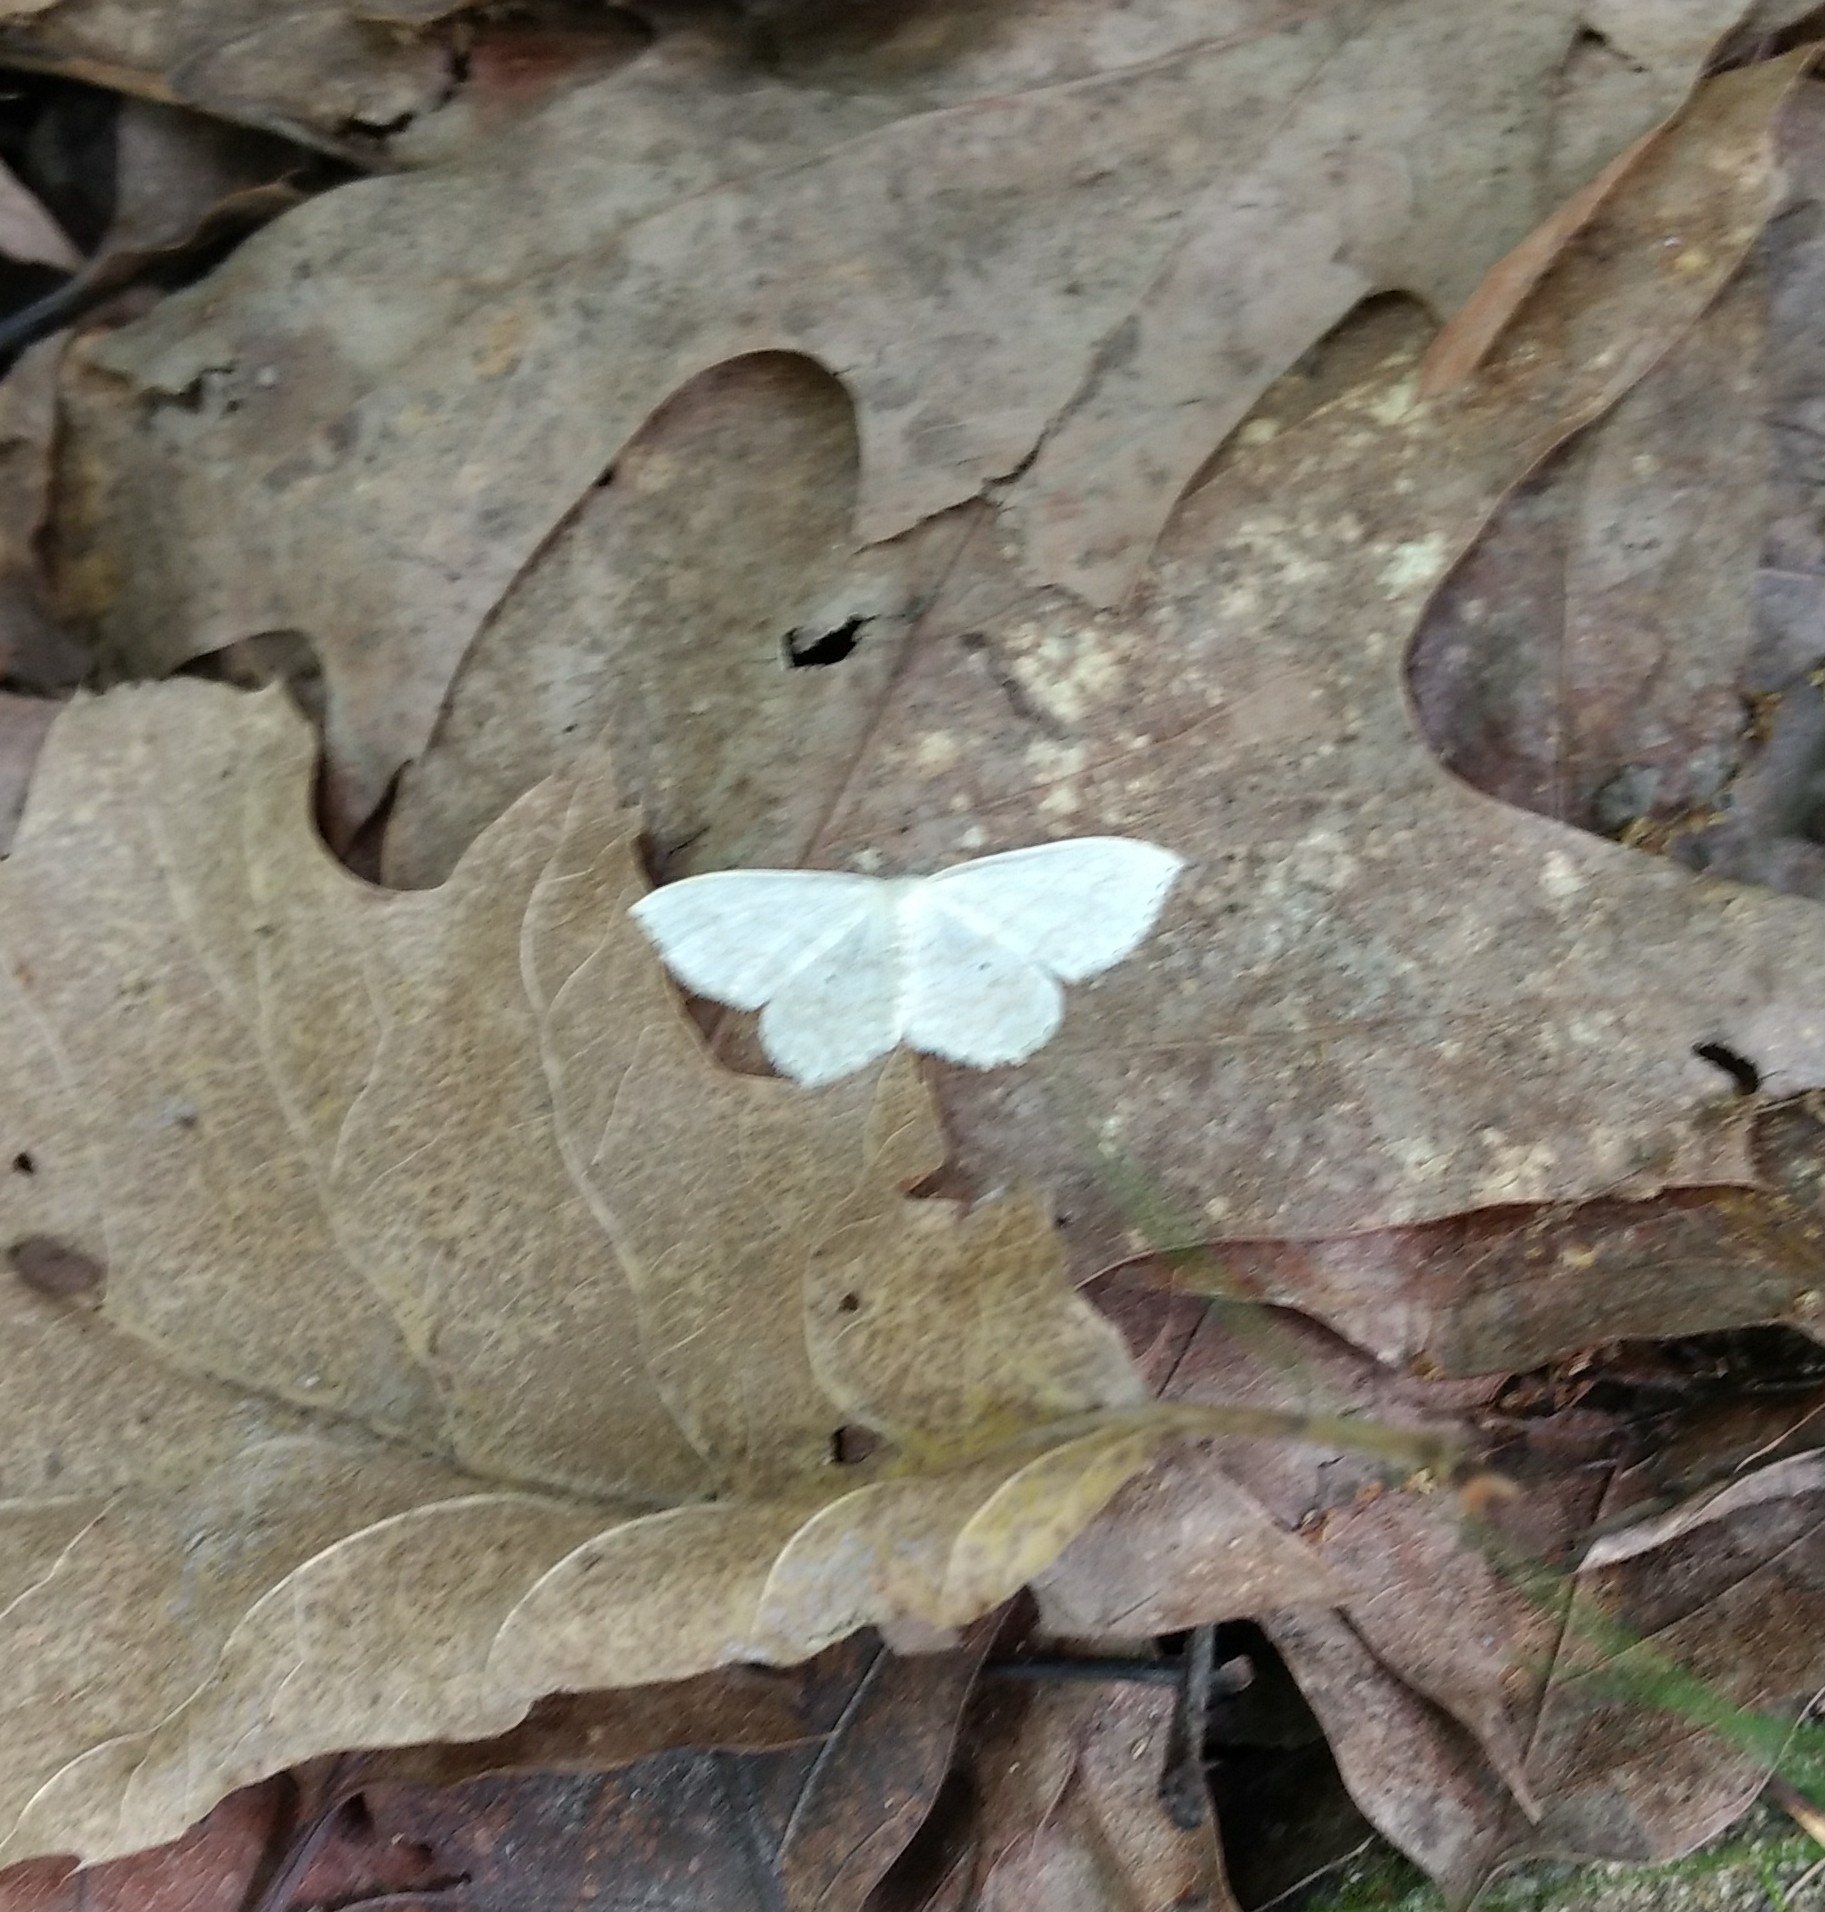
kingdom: Animalia
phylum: Arthropoda
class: Insecta
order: Lepidoptera
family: Geometridae
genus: Scopula
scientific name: Scopula limboundata
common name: Large lace border
